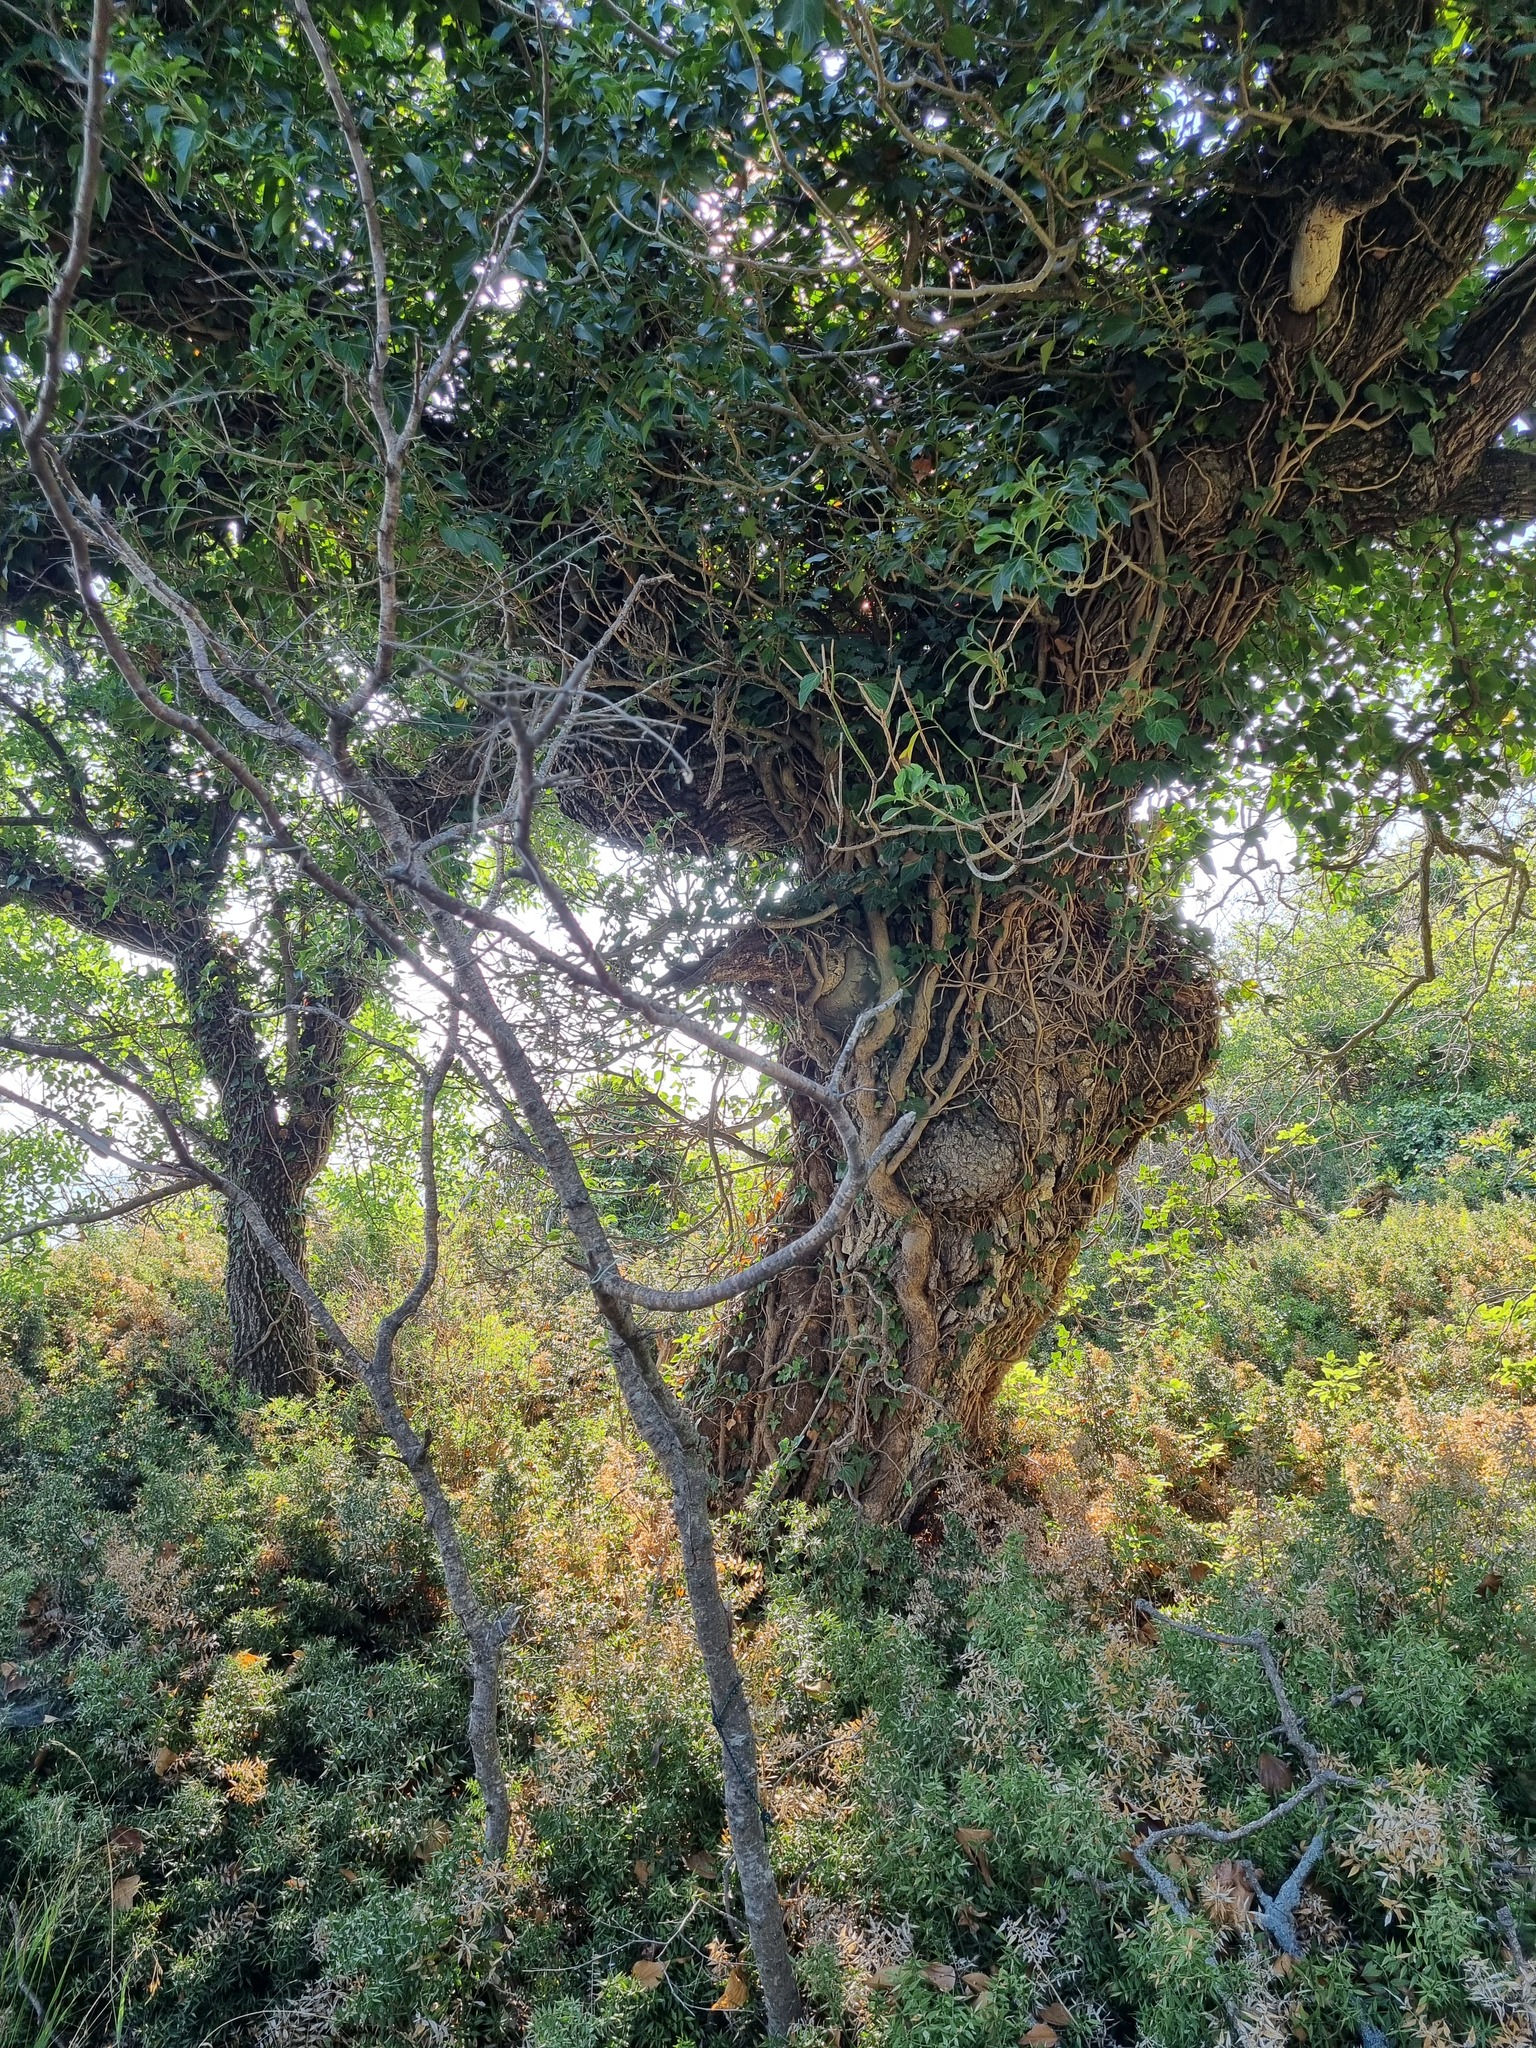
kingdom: Plantae
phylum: Tracheophyta
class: Magnoliopsida
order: Apiales
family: Araliaceae
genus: Hedera
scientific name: Hedera helix
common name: Ivy
